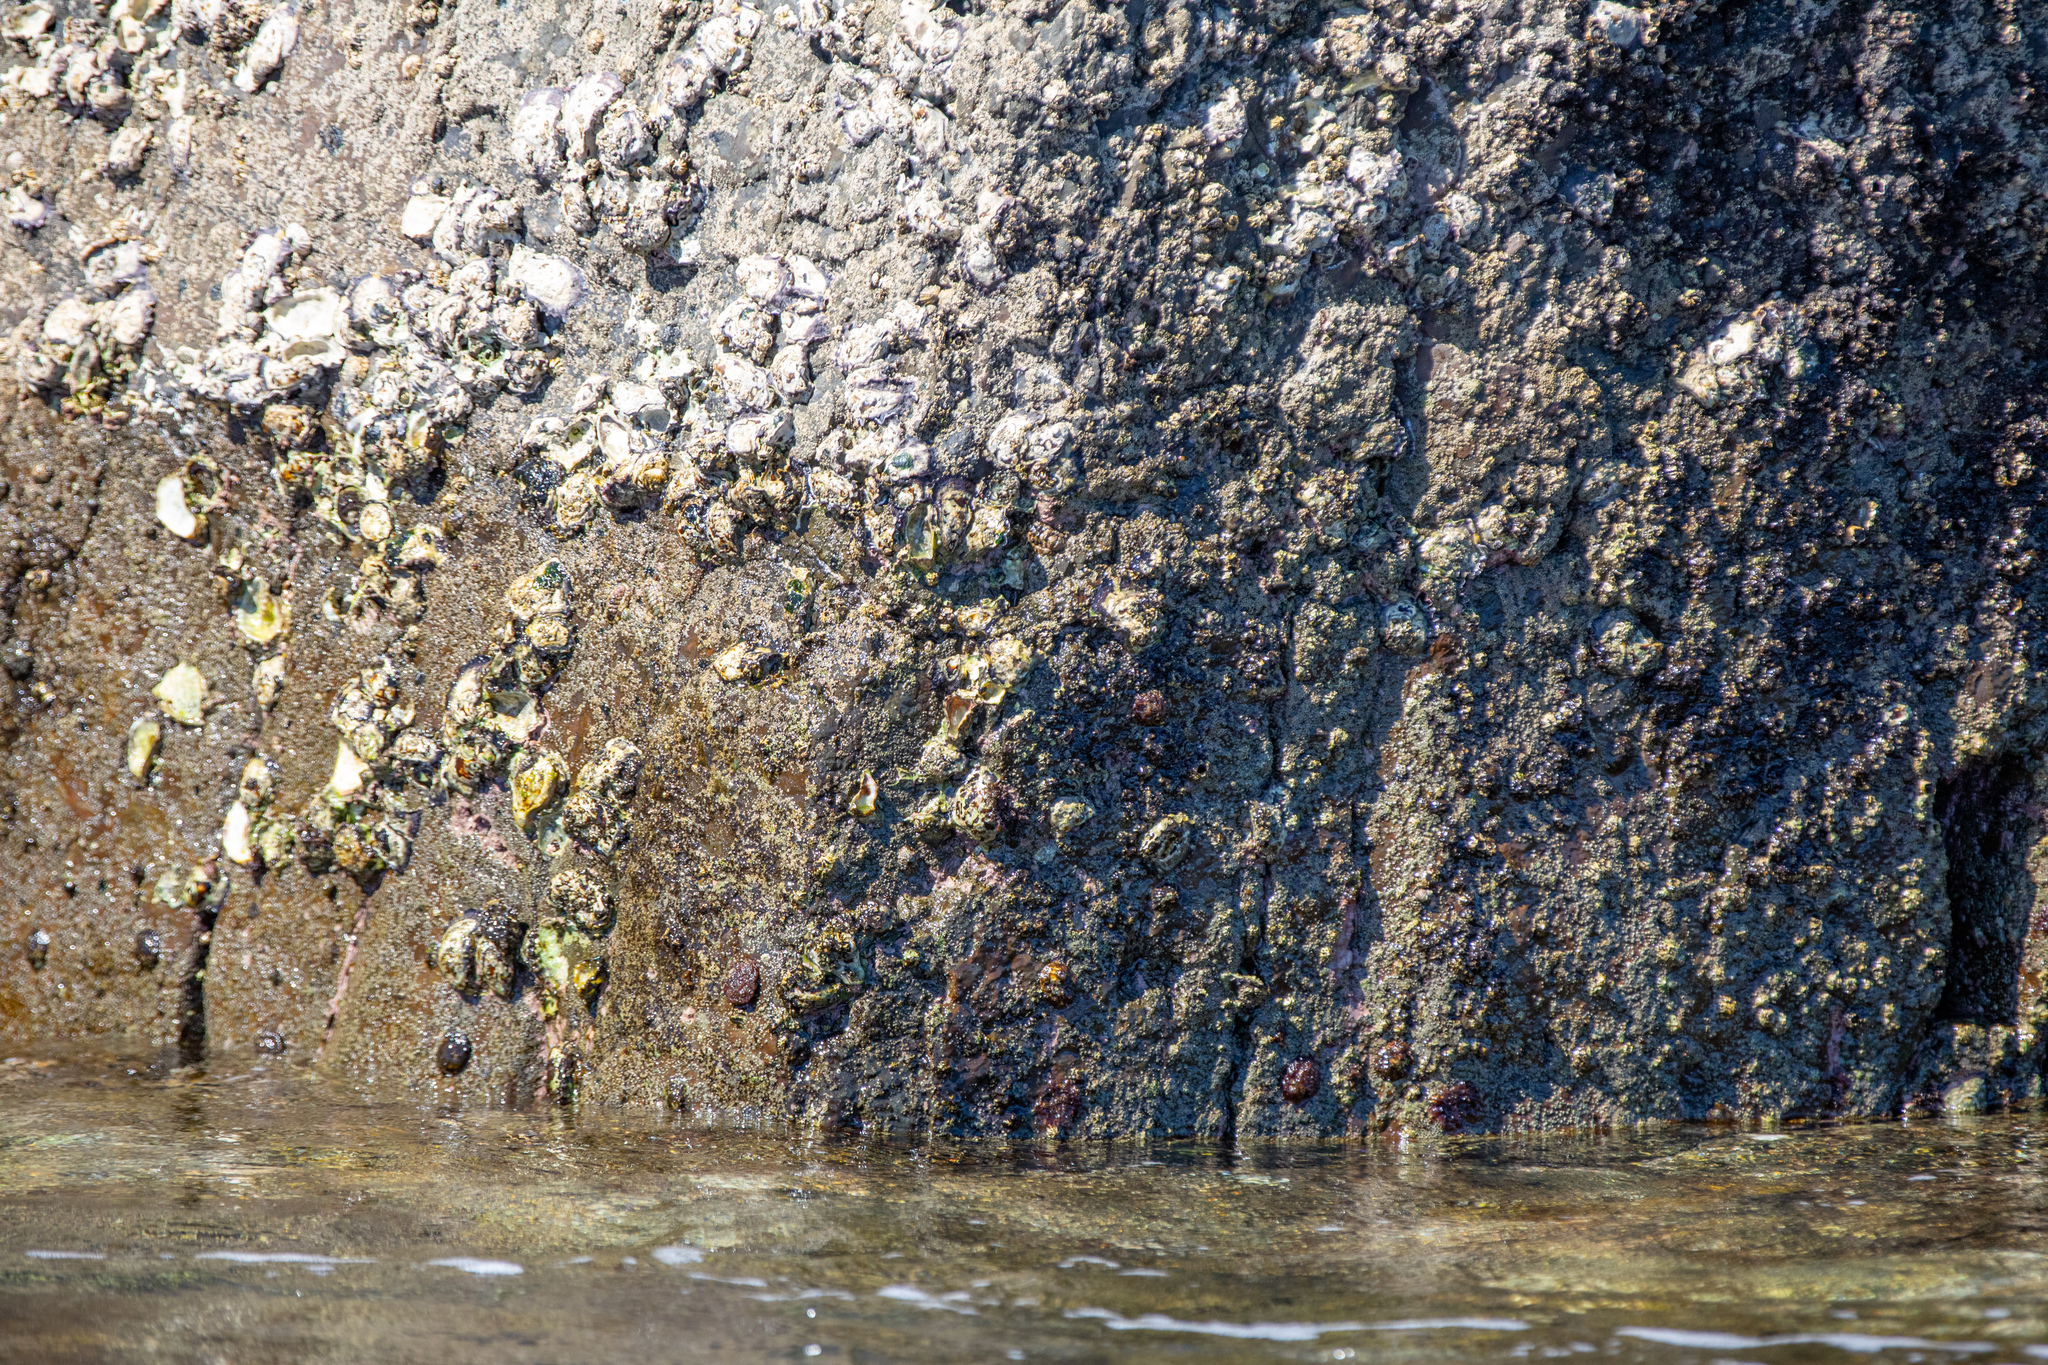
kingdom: Animalia
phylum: Mollusca
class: Bivalvia
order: Ostreida
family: Ostreidae
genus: Saccostrea
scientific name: Saccostrea glomerata
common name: Sydney cupped oyster
